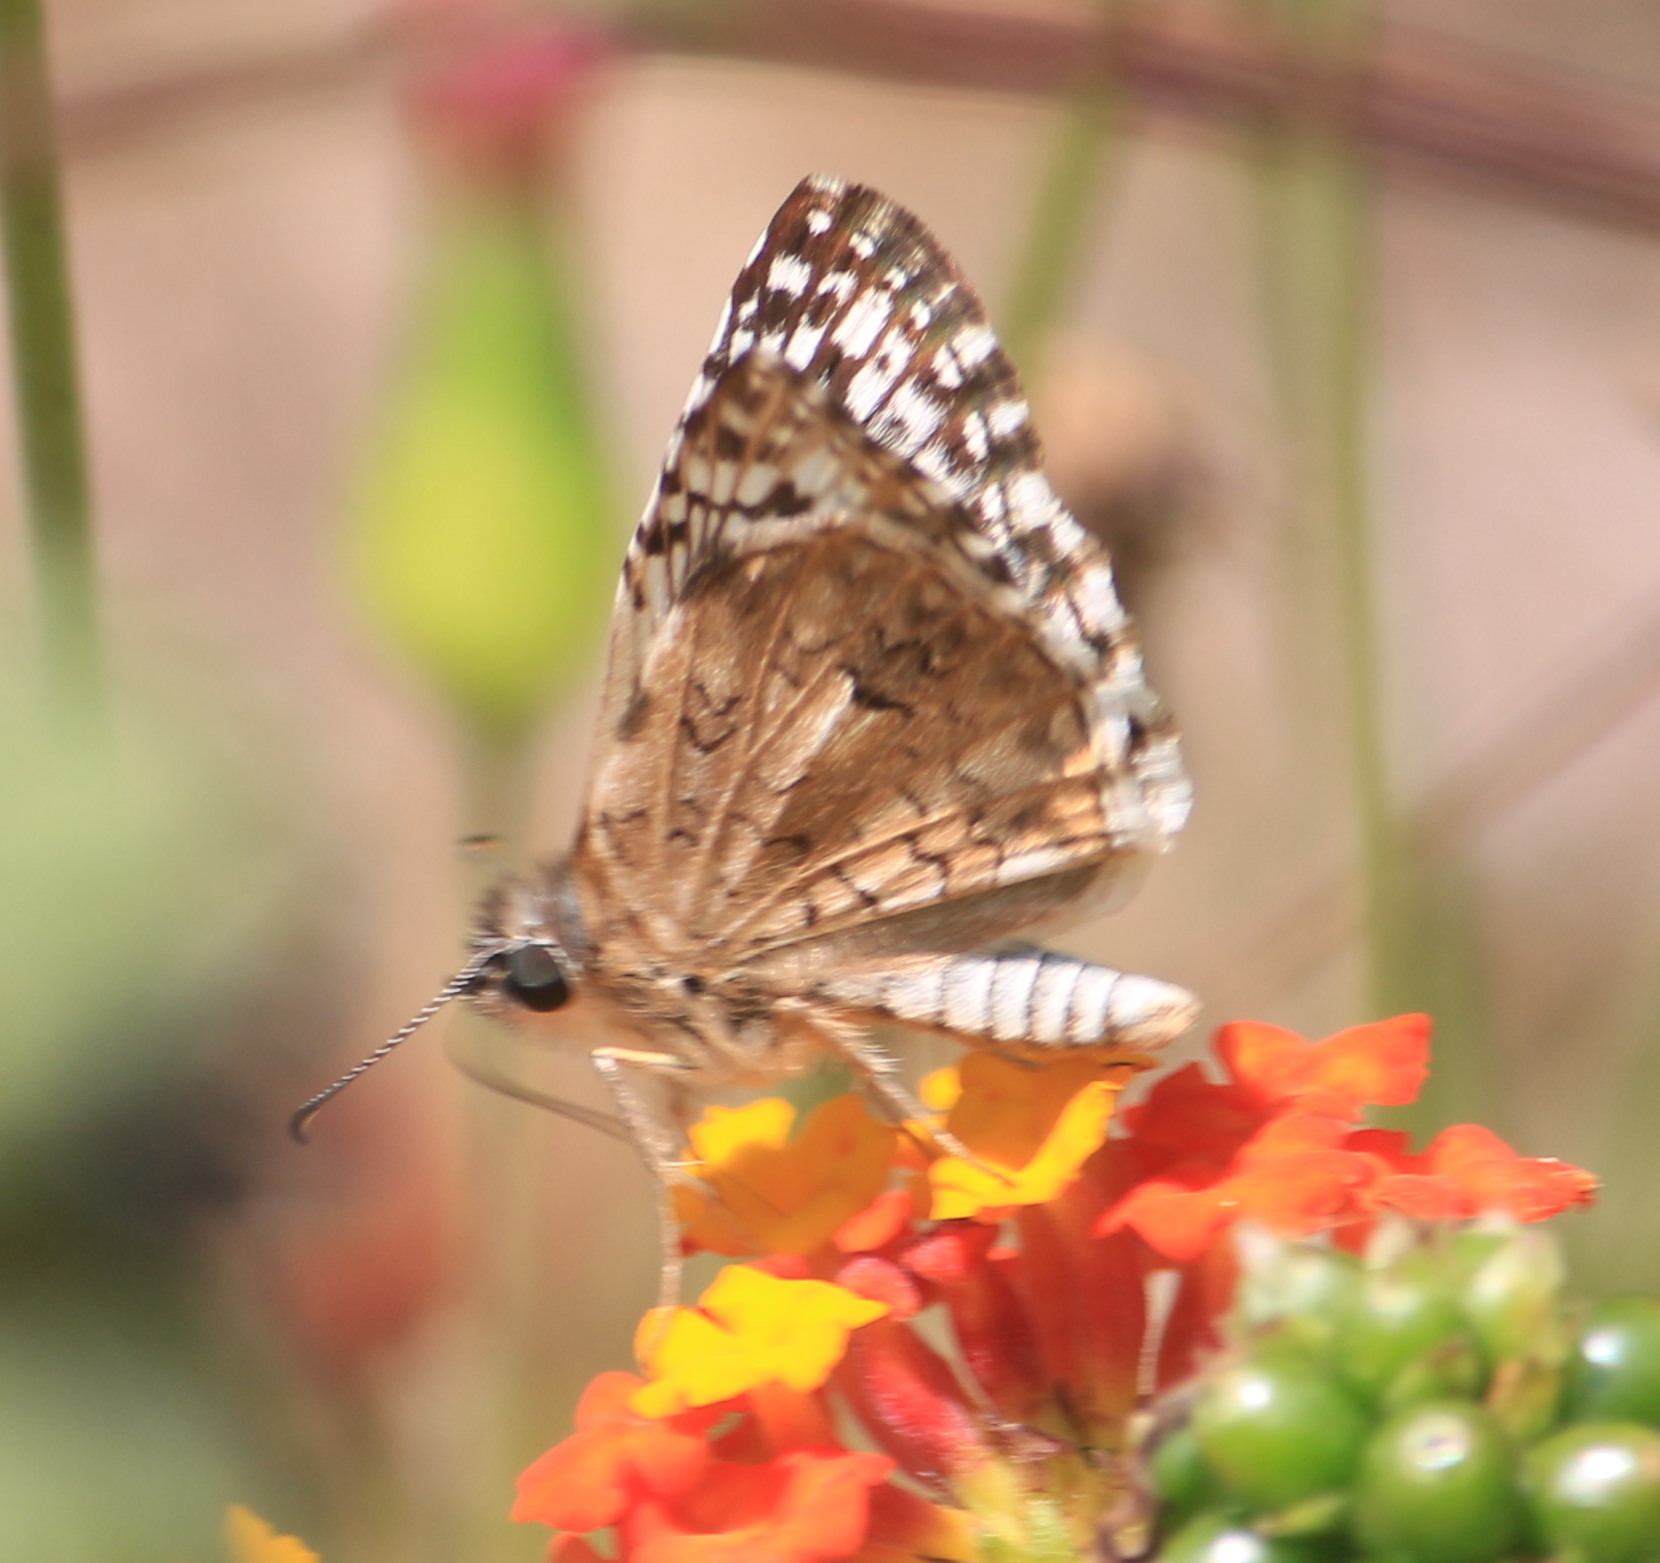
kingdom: Animalia
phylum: Arthropoda
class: Insecta
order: Lepidoptera
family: Hesperiidae
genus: Pyrgus
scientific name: Pyrgus oileus
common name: Tropical checkered-skipper
